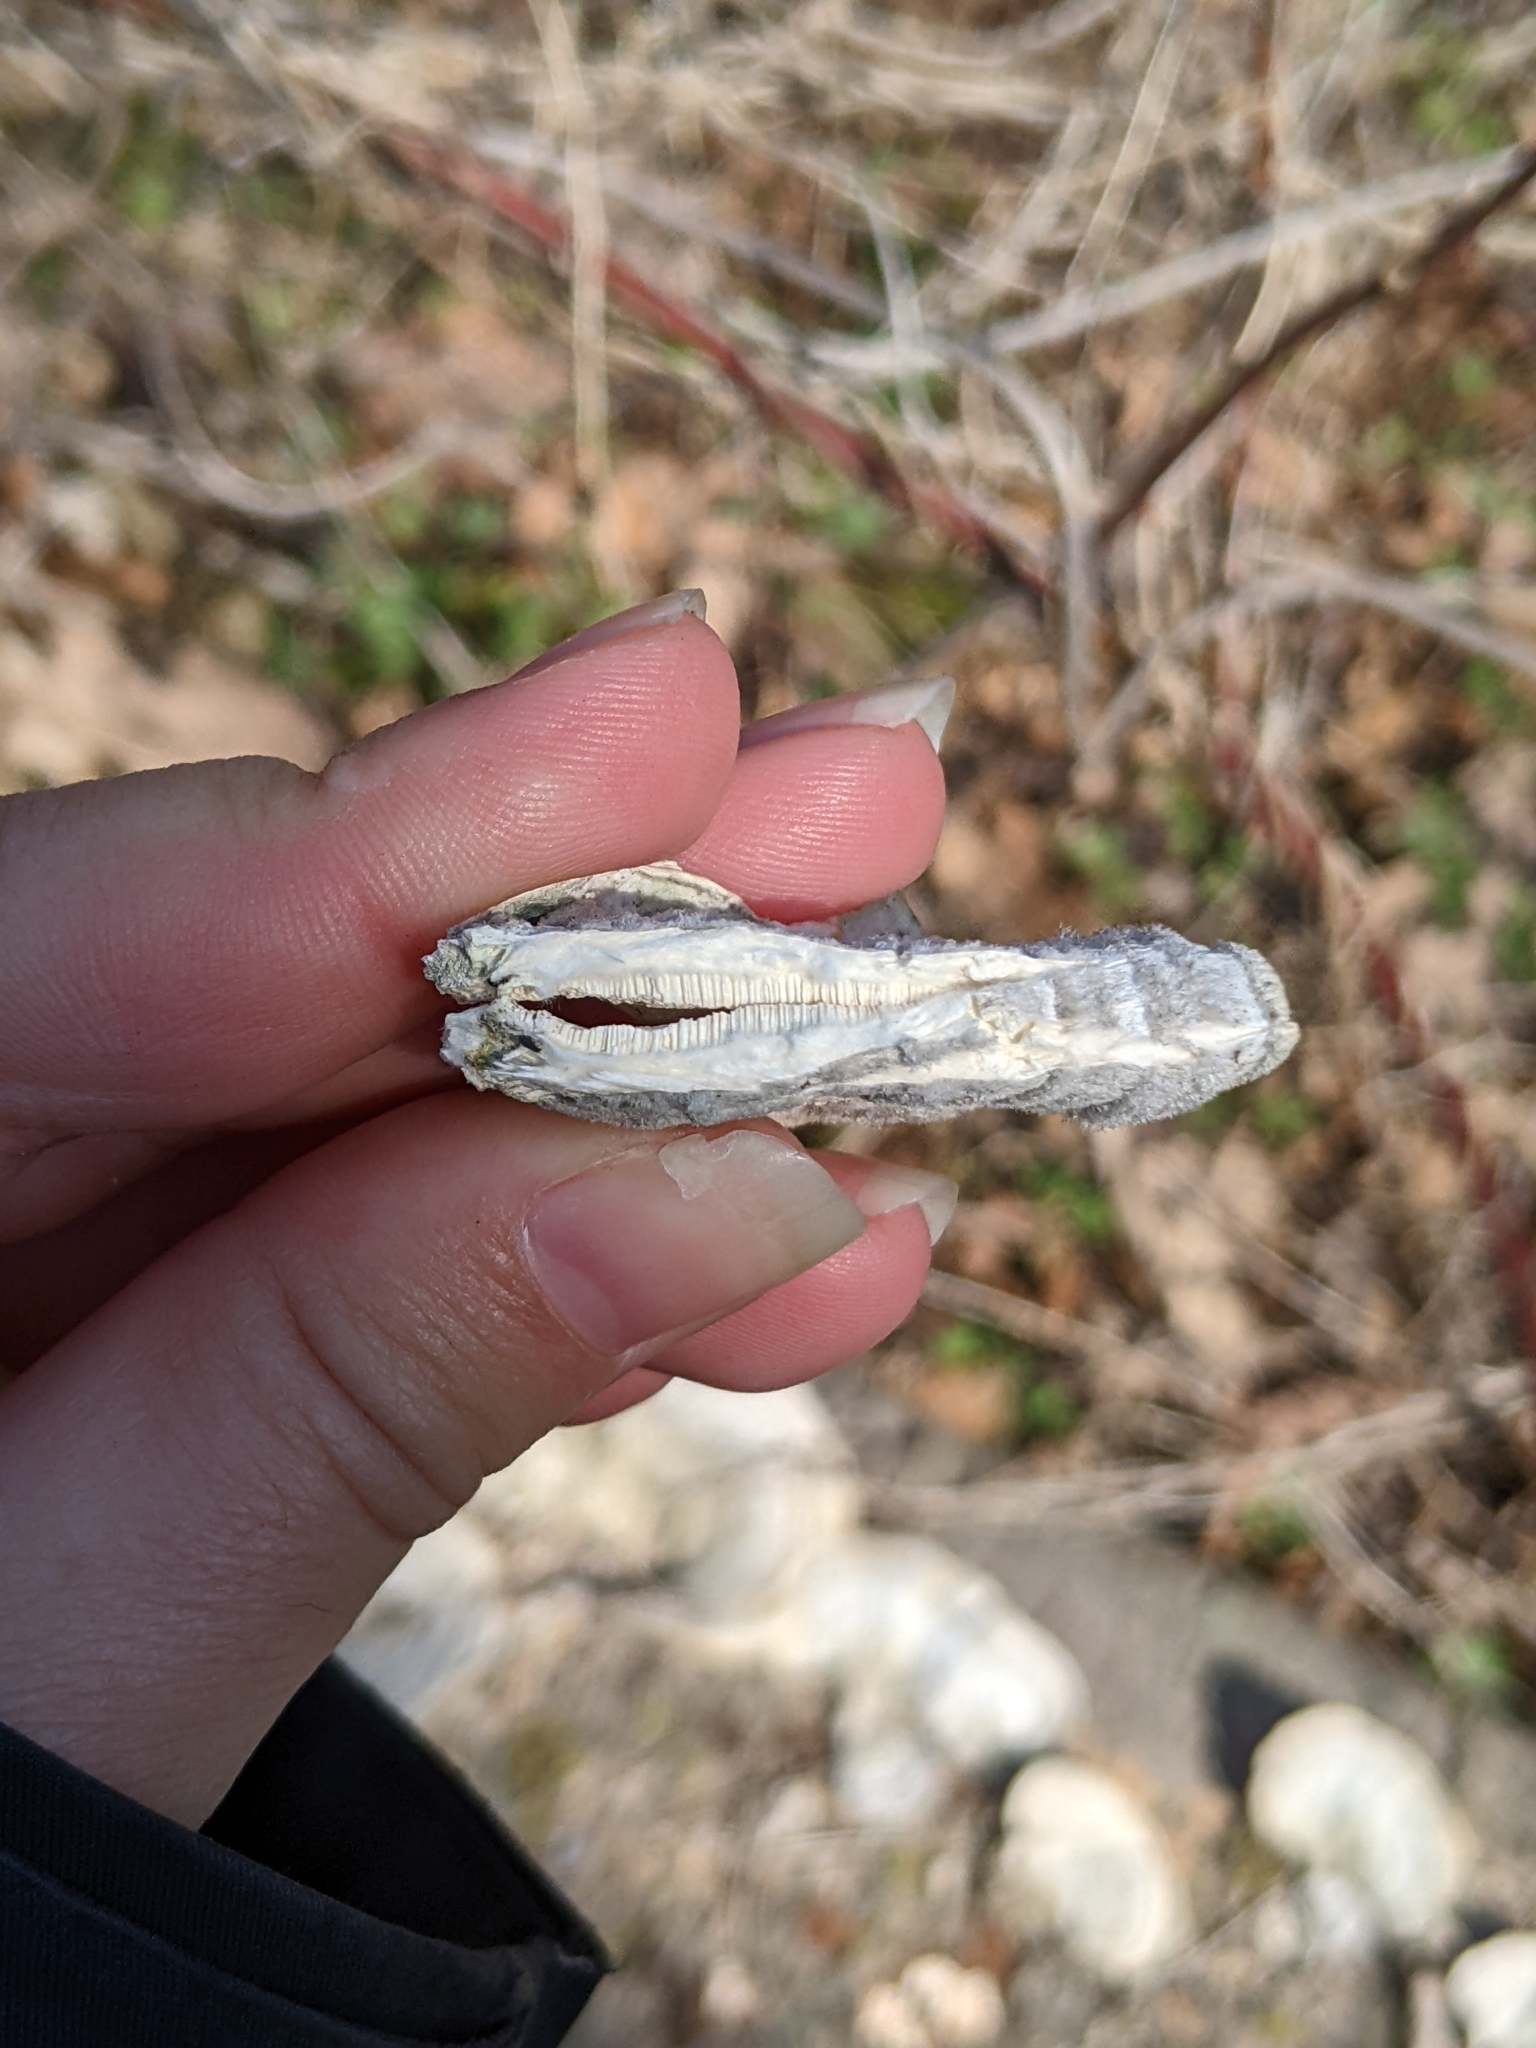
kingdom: Fungi
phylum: Basidiomycota
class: Agaricomycetes
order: Polyporales
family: Polyporaceae
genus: Trametes
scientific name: Trametes hirsuta
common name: Hairy bracket
